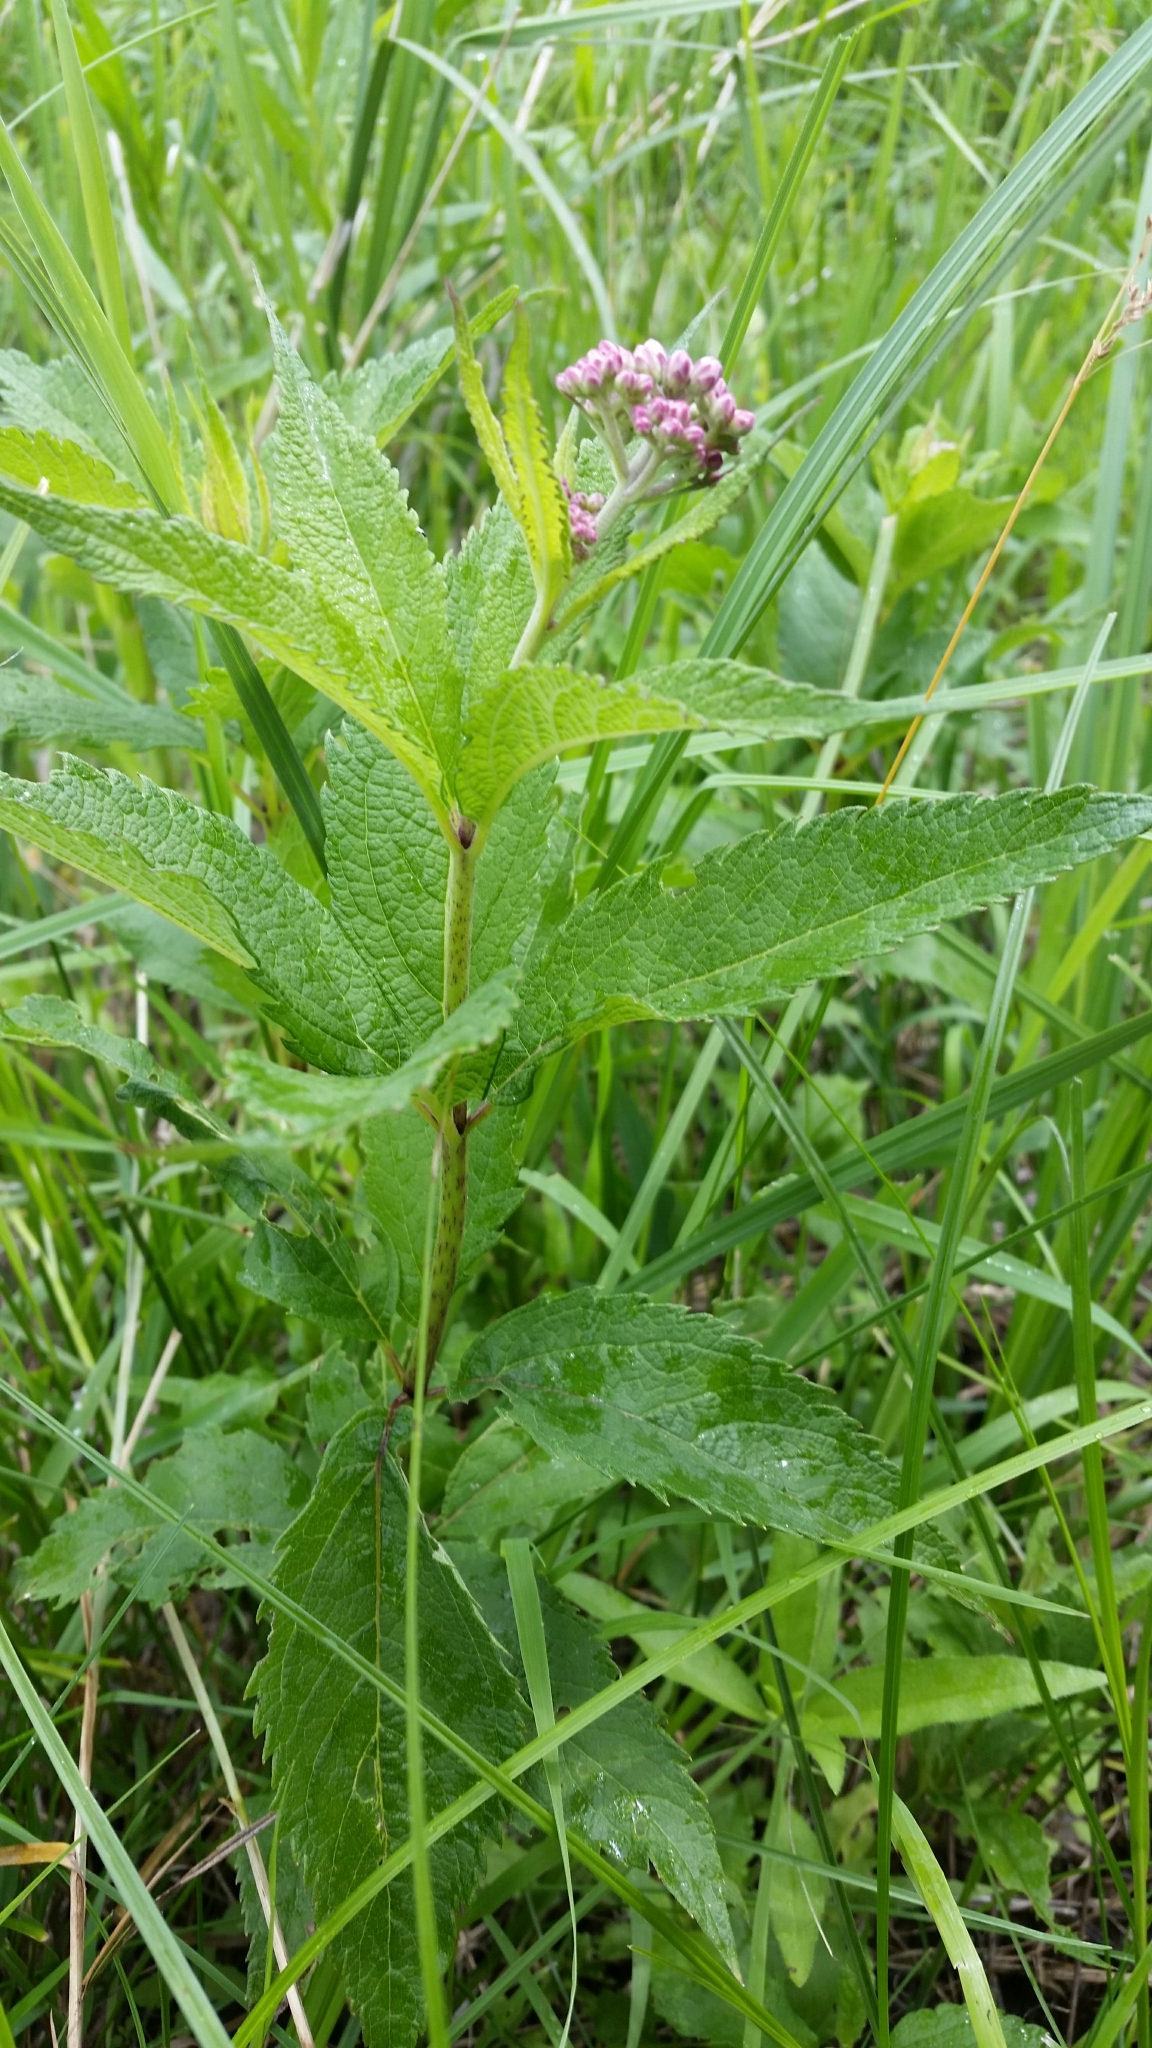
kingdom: Plantae
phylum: Tracheophyta
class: Magnoliopsida
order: Asterales
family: Asteraceae
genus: Eutrochium
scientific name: Eutrochium maculatum
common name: Spotted joe pye weed
